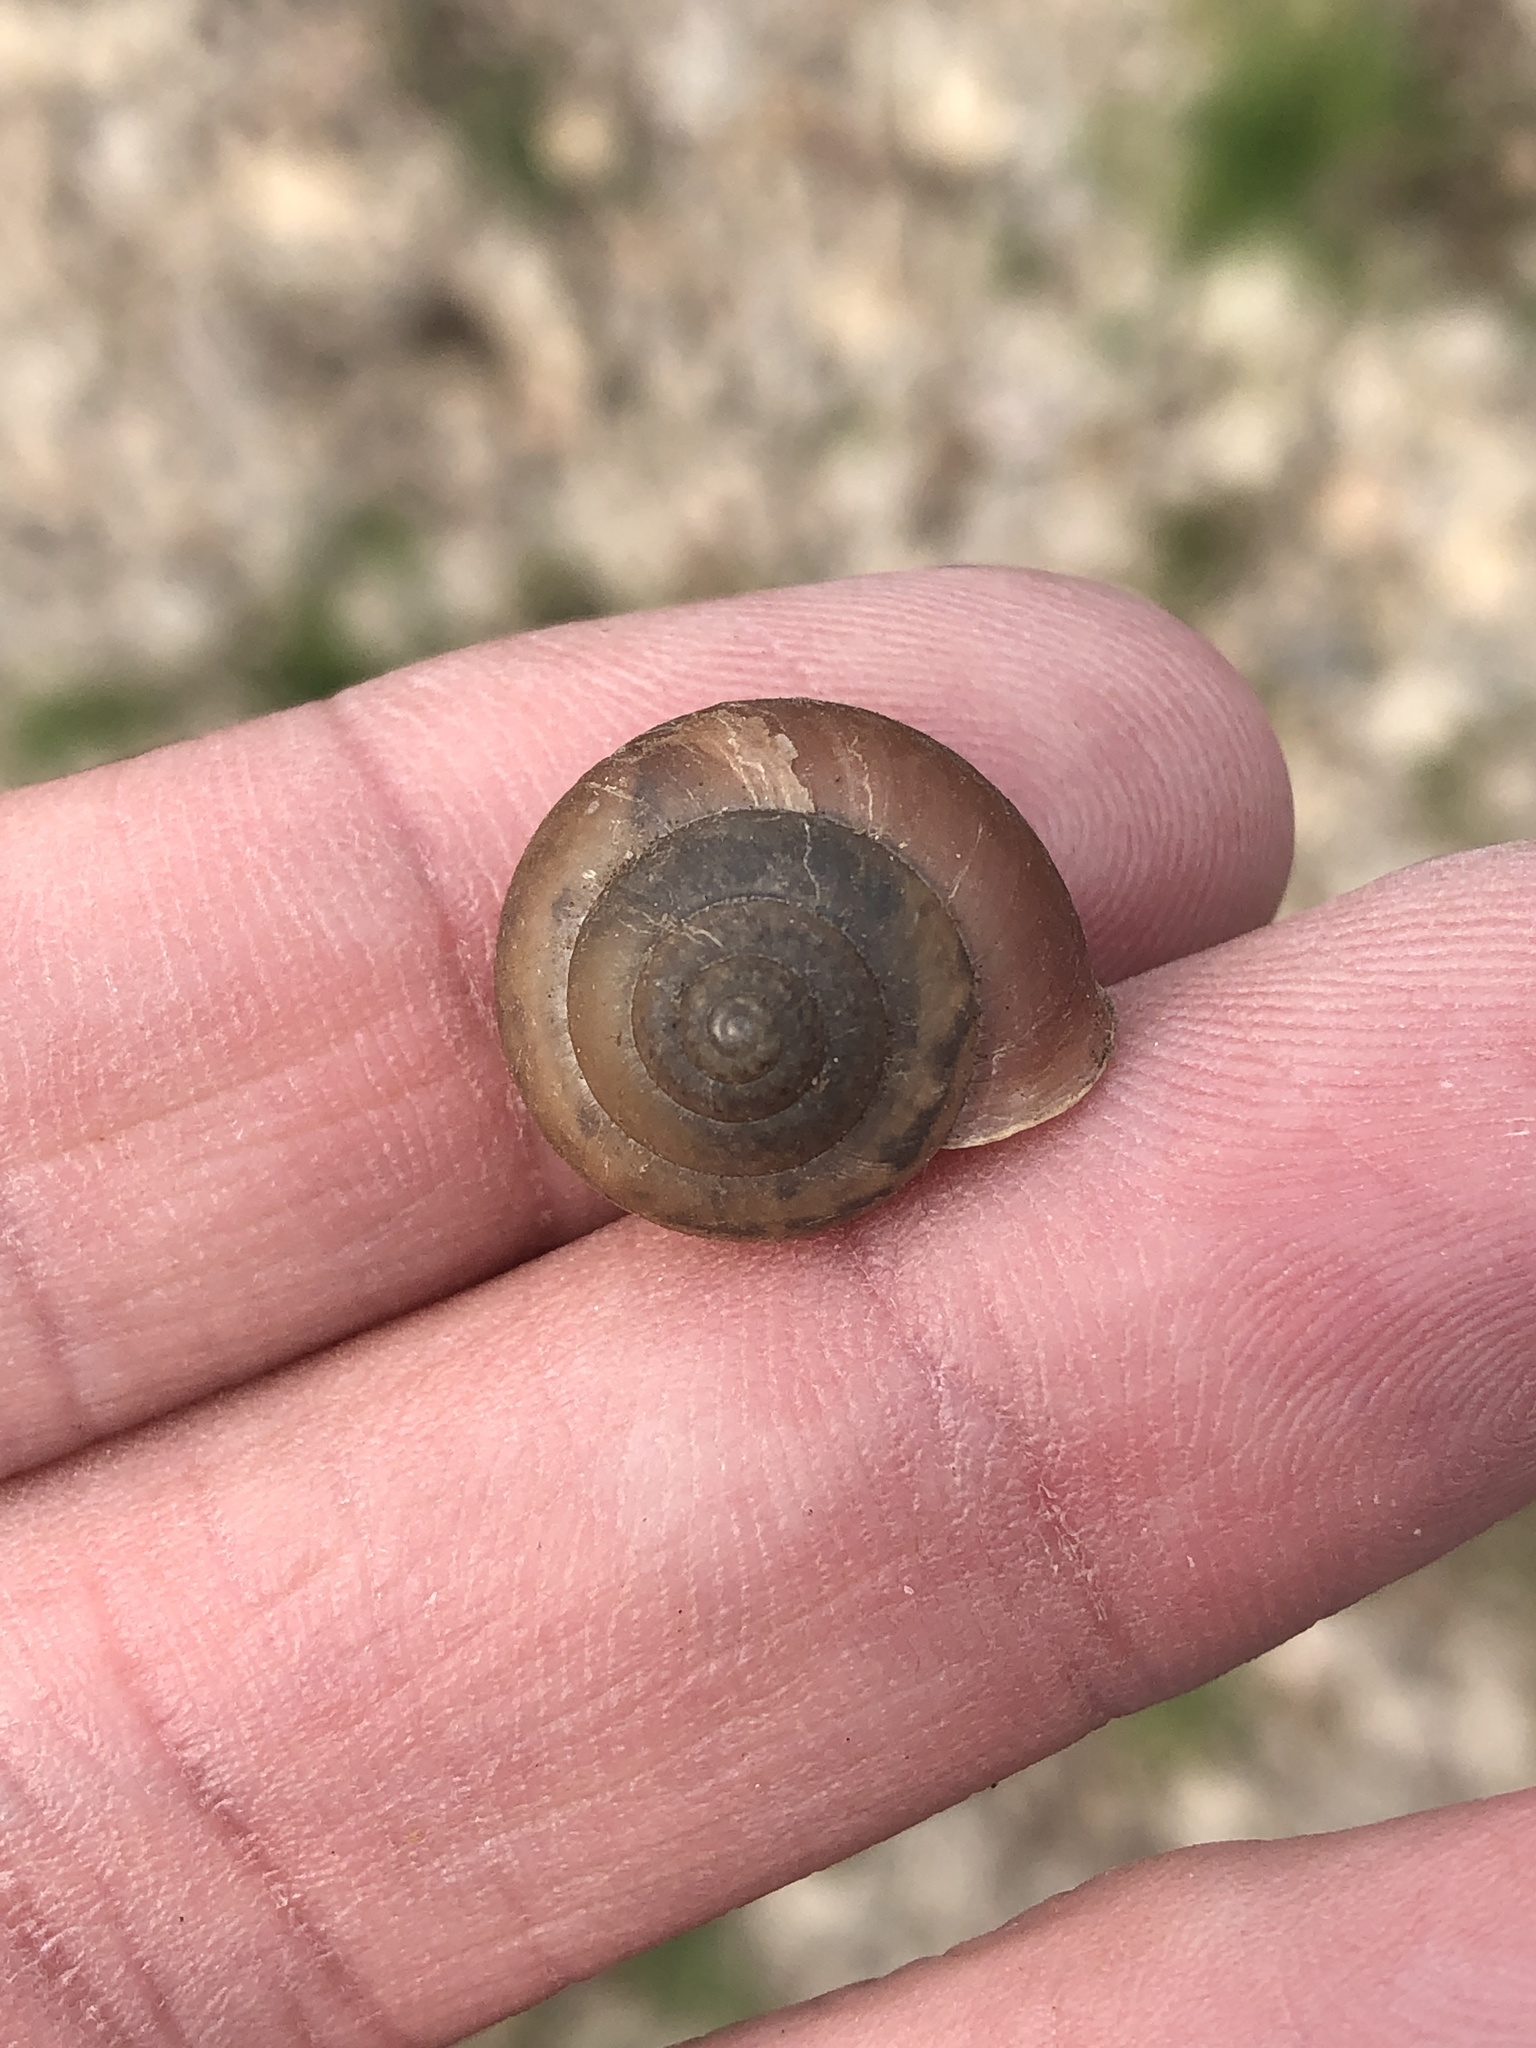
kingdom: Animalia
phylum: Mollusca
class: Gastropoda
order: Stylommatophora
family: Camaenidae
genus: Bradybaena
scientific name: Bradybaena similaris
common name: Asian trampsnail
